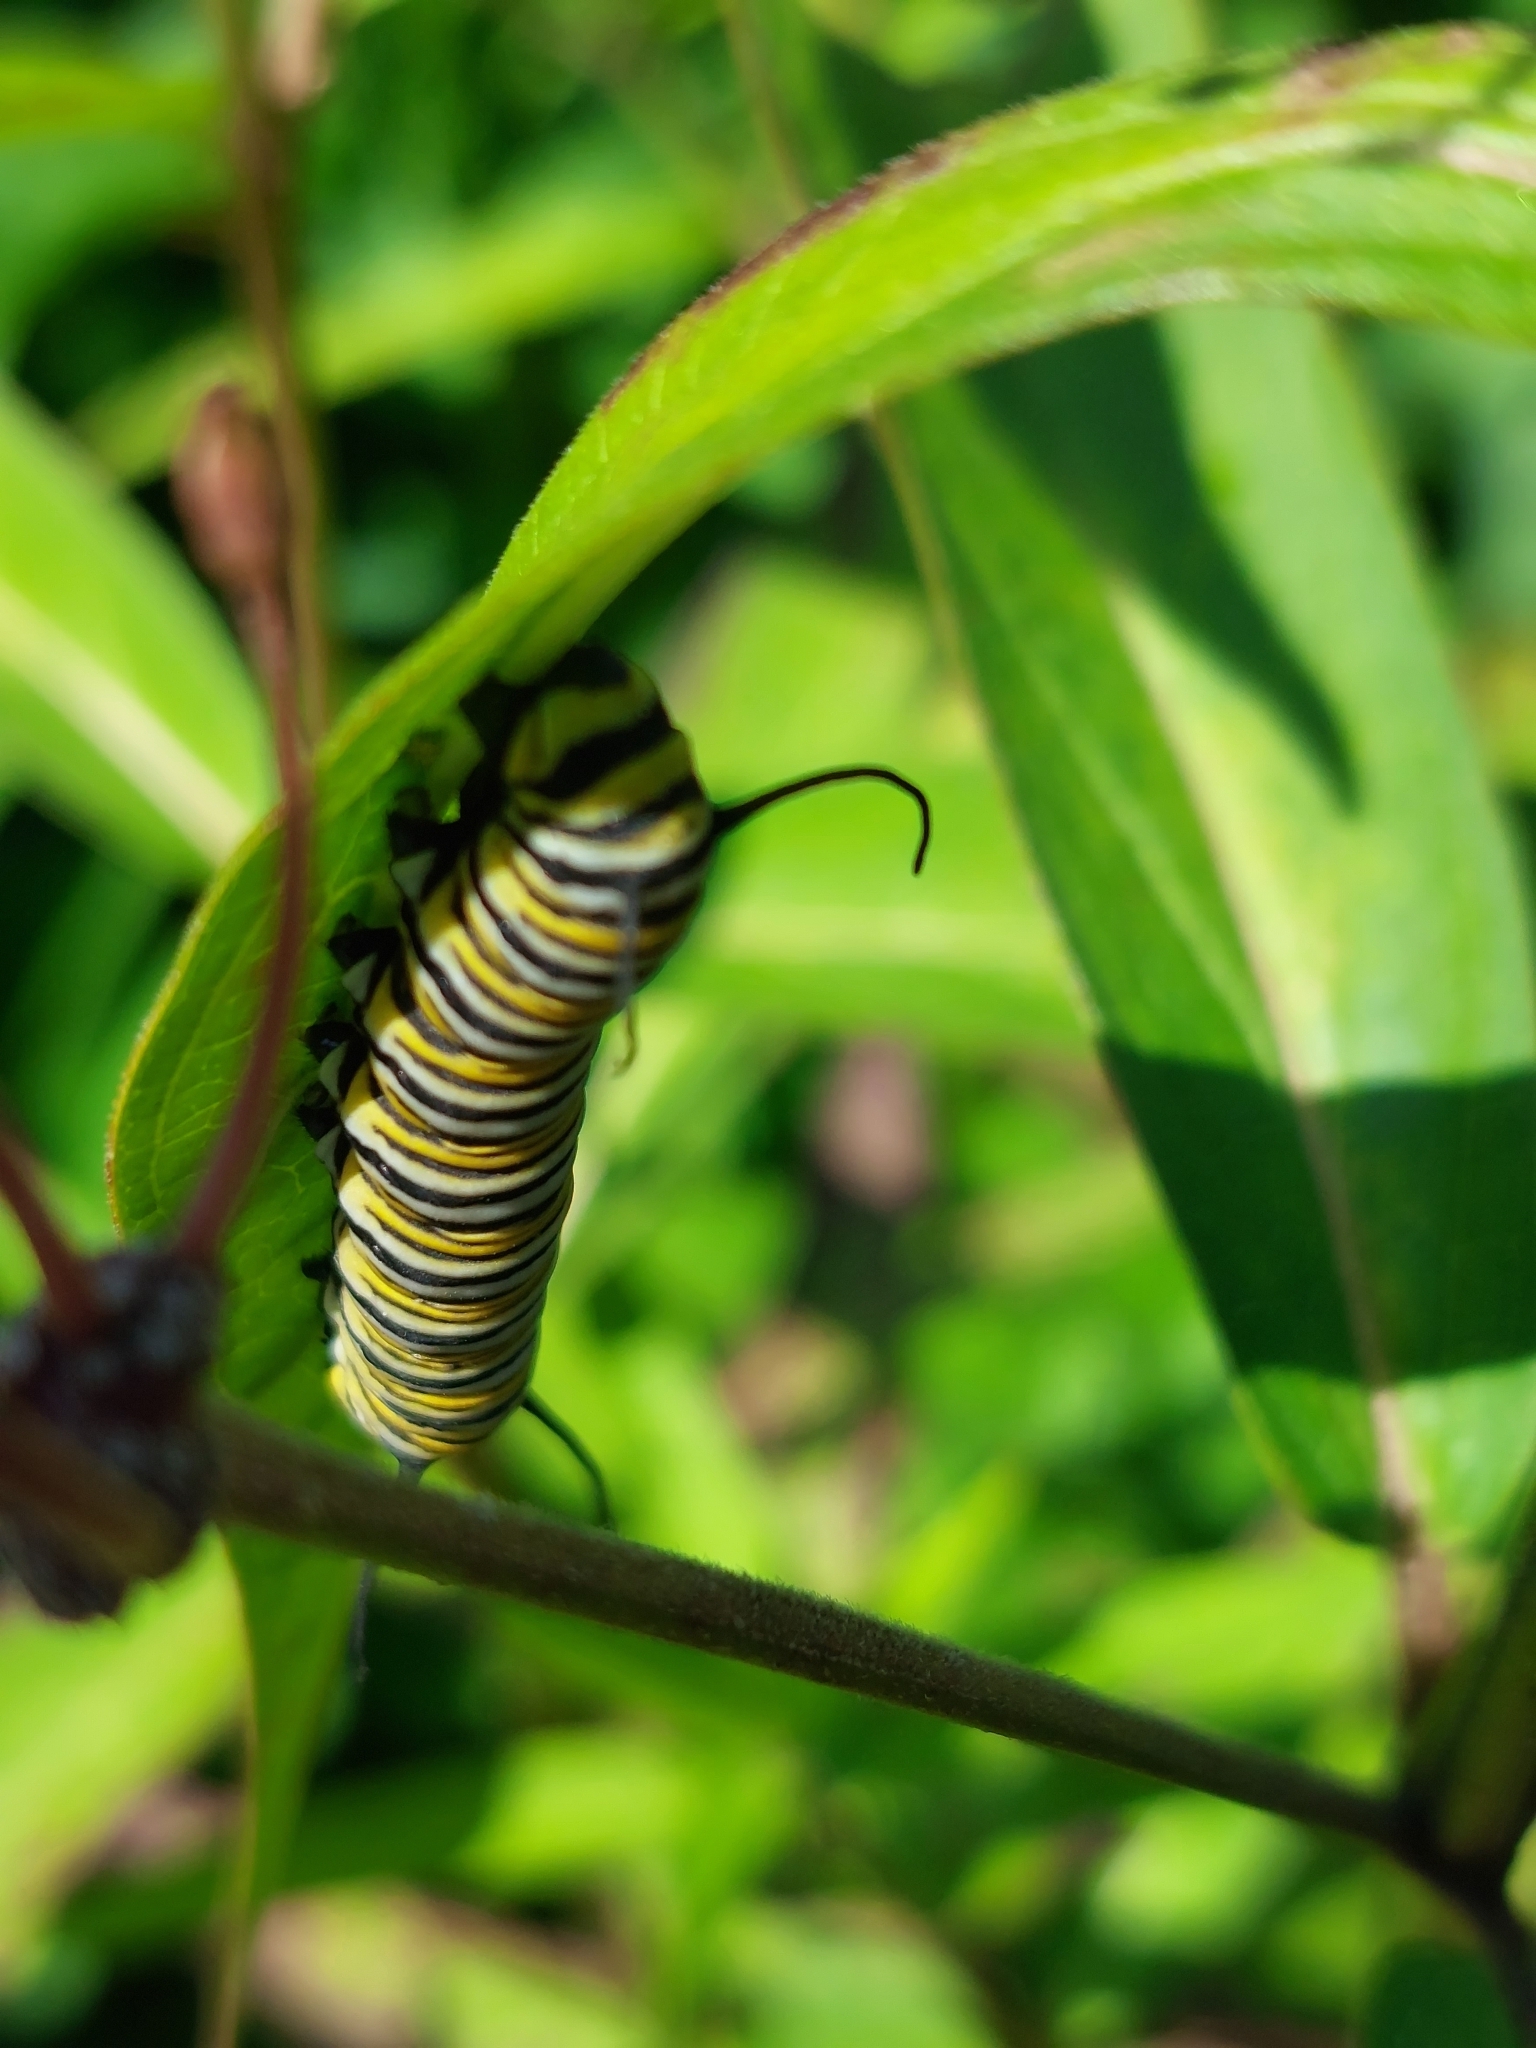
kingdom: Animalia
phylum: Arthropoda
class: Insecta
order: Lepidoptera
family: Nymphalidae
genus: Danaus
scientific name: Danaus plexippus
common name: Monarch
